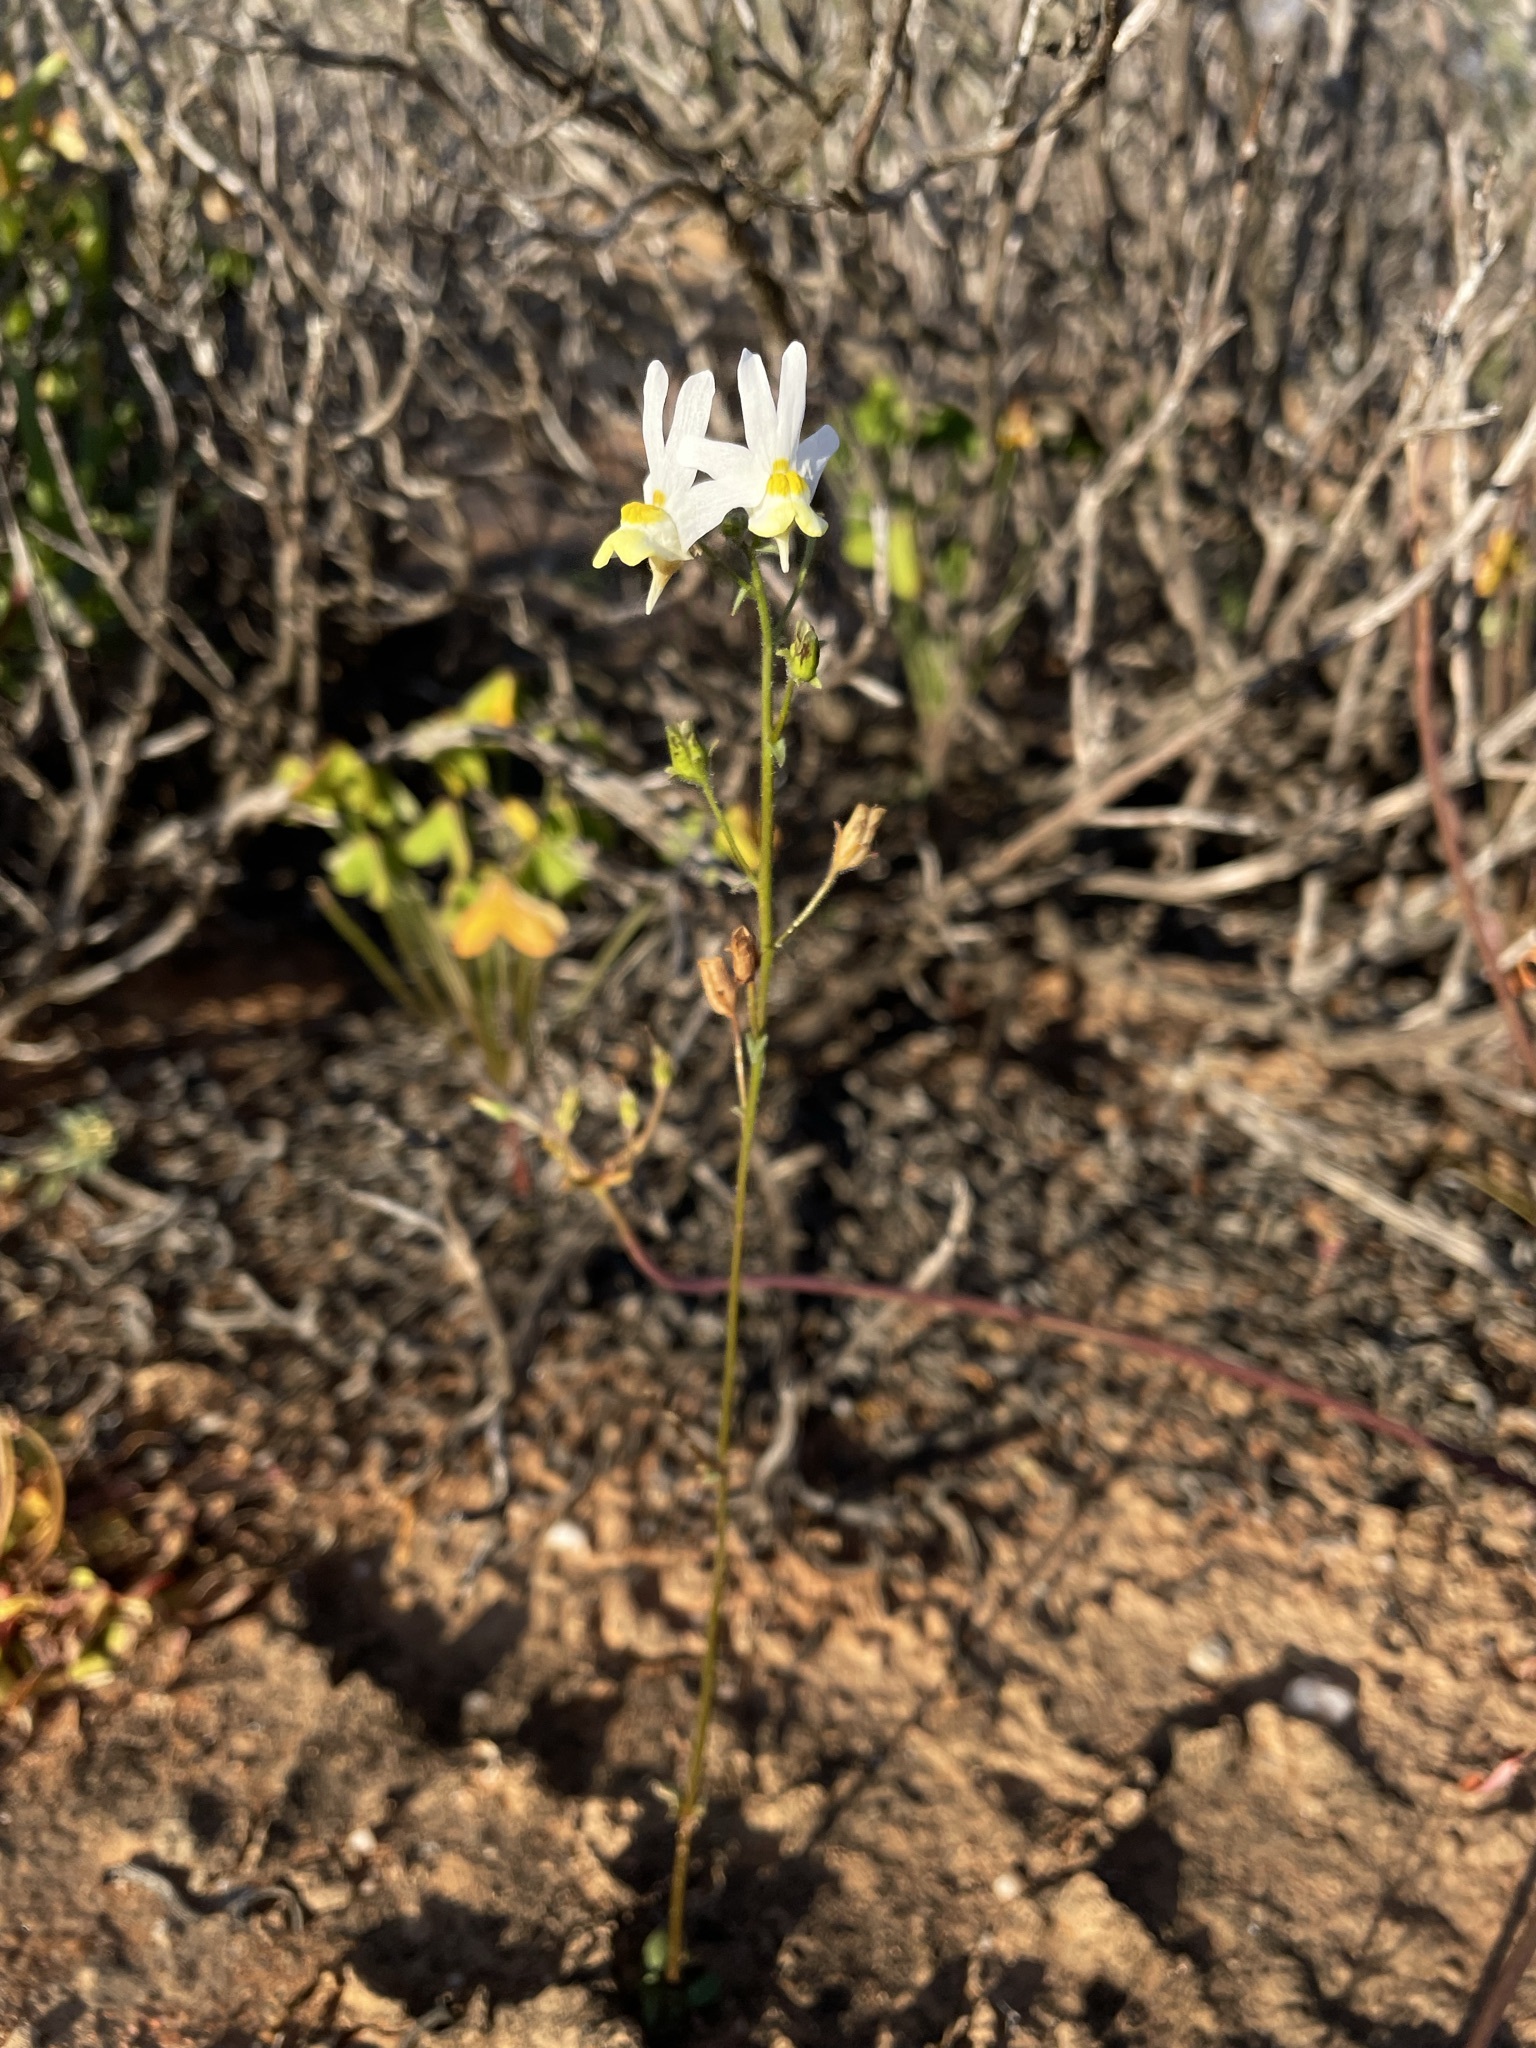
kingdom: Plantae
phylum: Tracheophyta
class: Magnoliopsida
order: Lamiales
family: Scrophulariaceae
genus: Nemesia
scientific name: Nemesia anisocarpa
